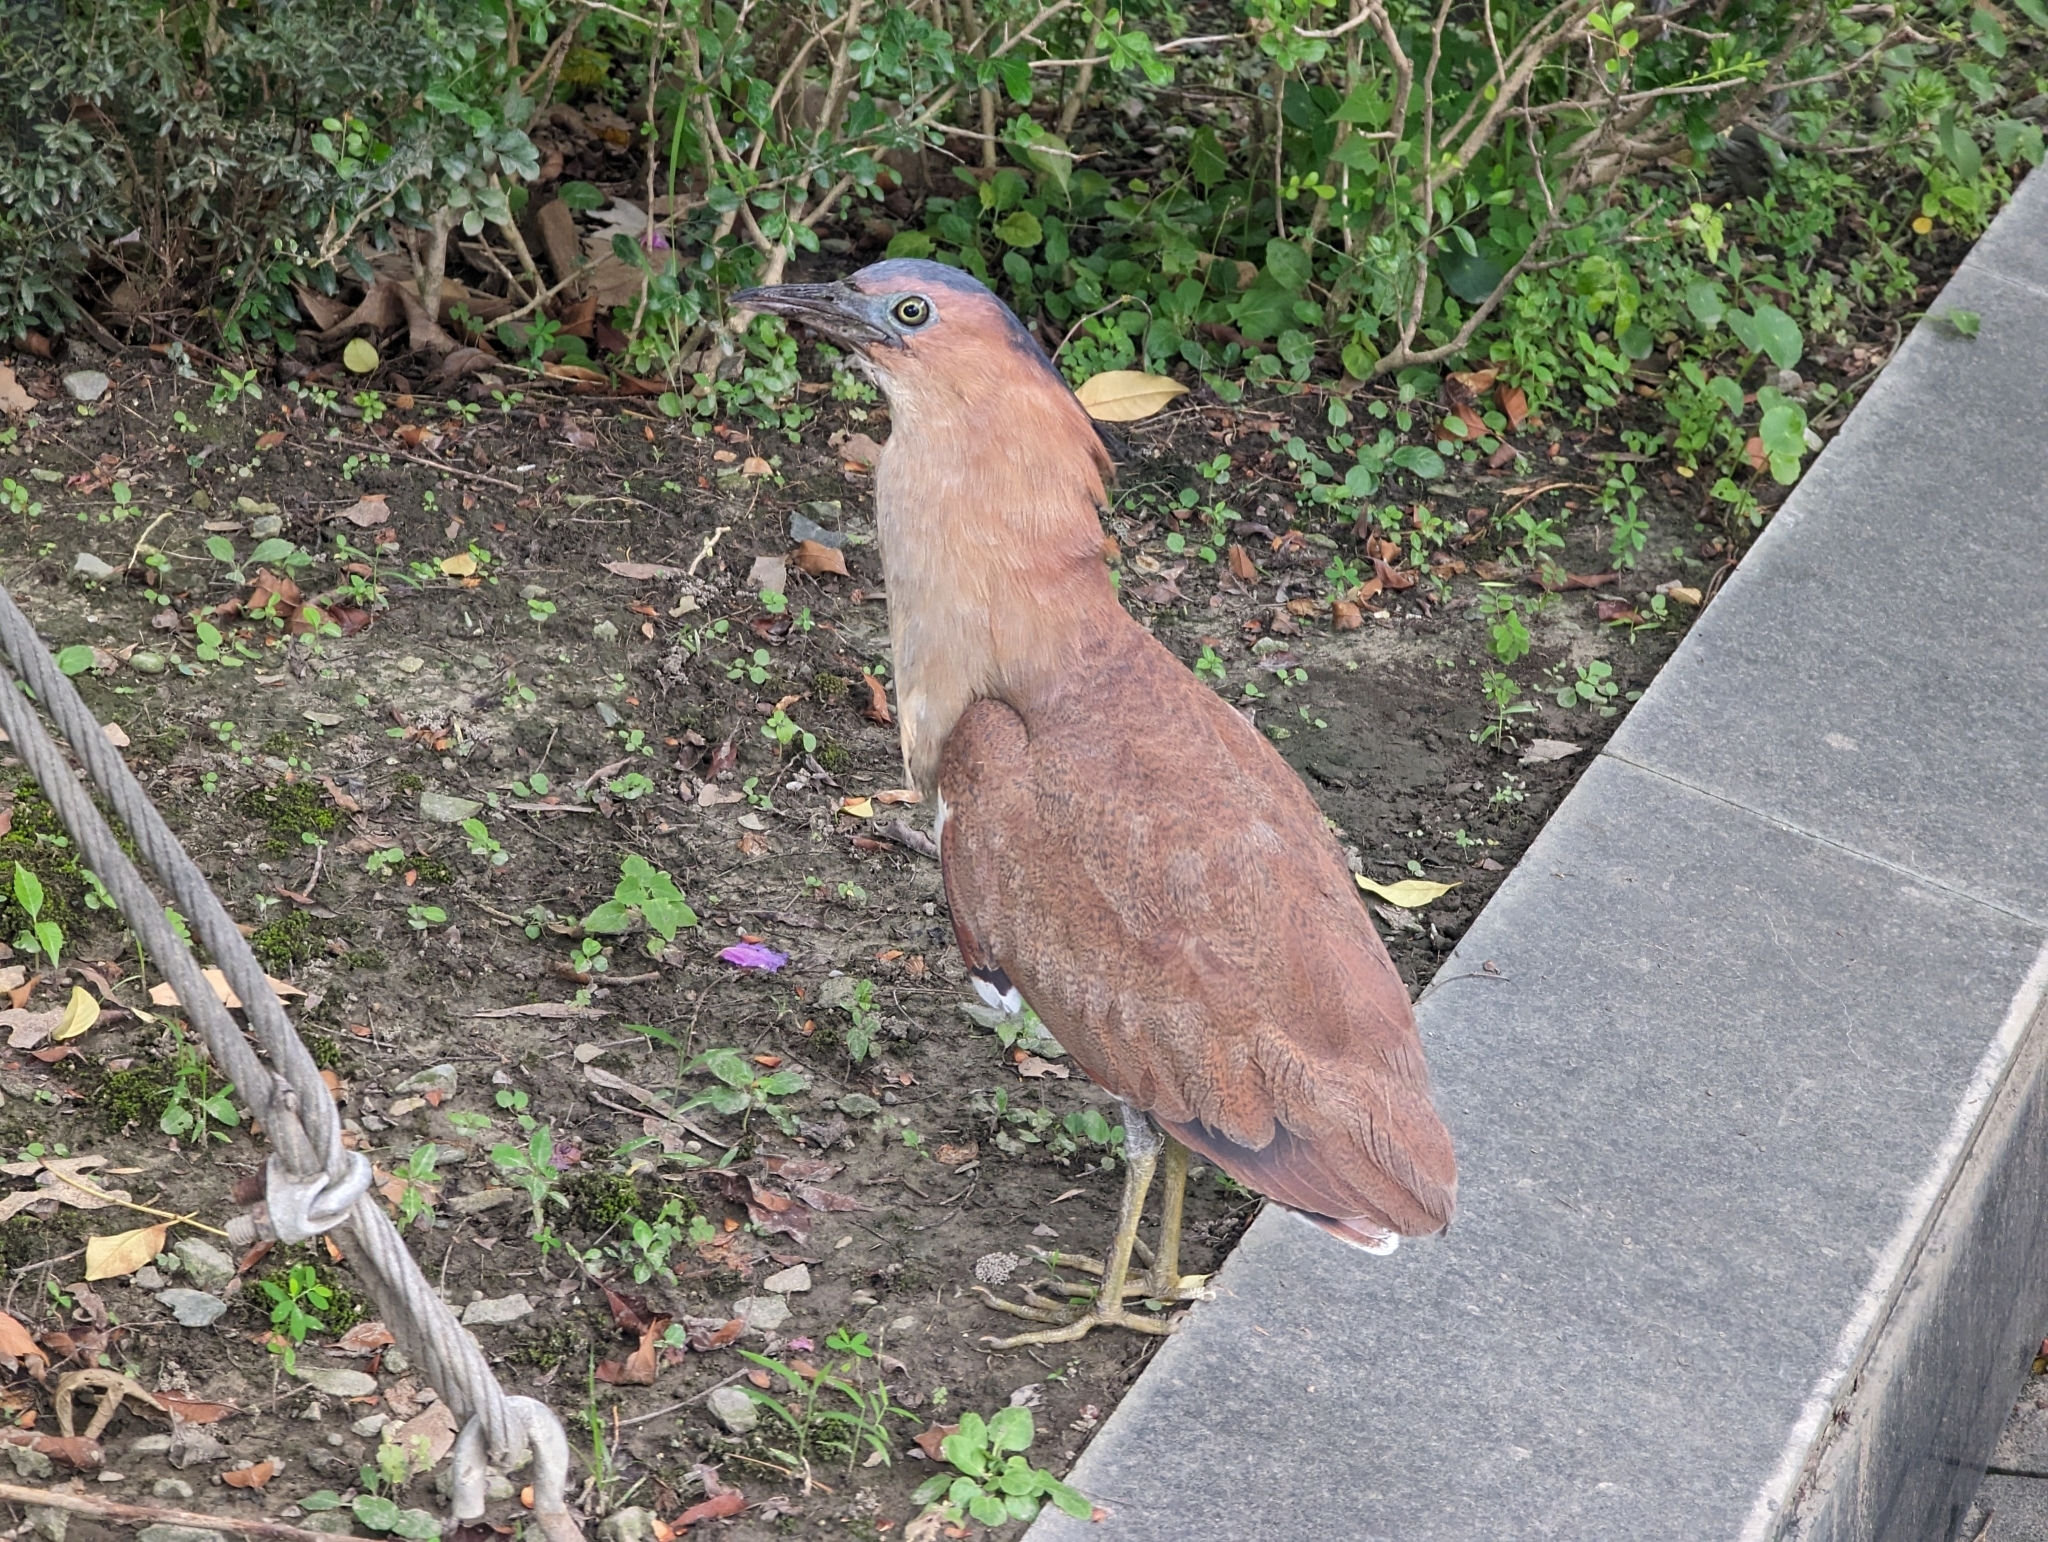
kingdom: Animalia
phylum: Chordata
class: Aves
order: Pelecaniformes
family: Ardeidae
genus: Gorsachius
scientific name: Gorsachius melanolophus
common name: Malayan night heron
